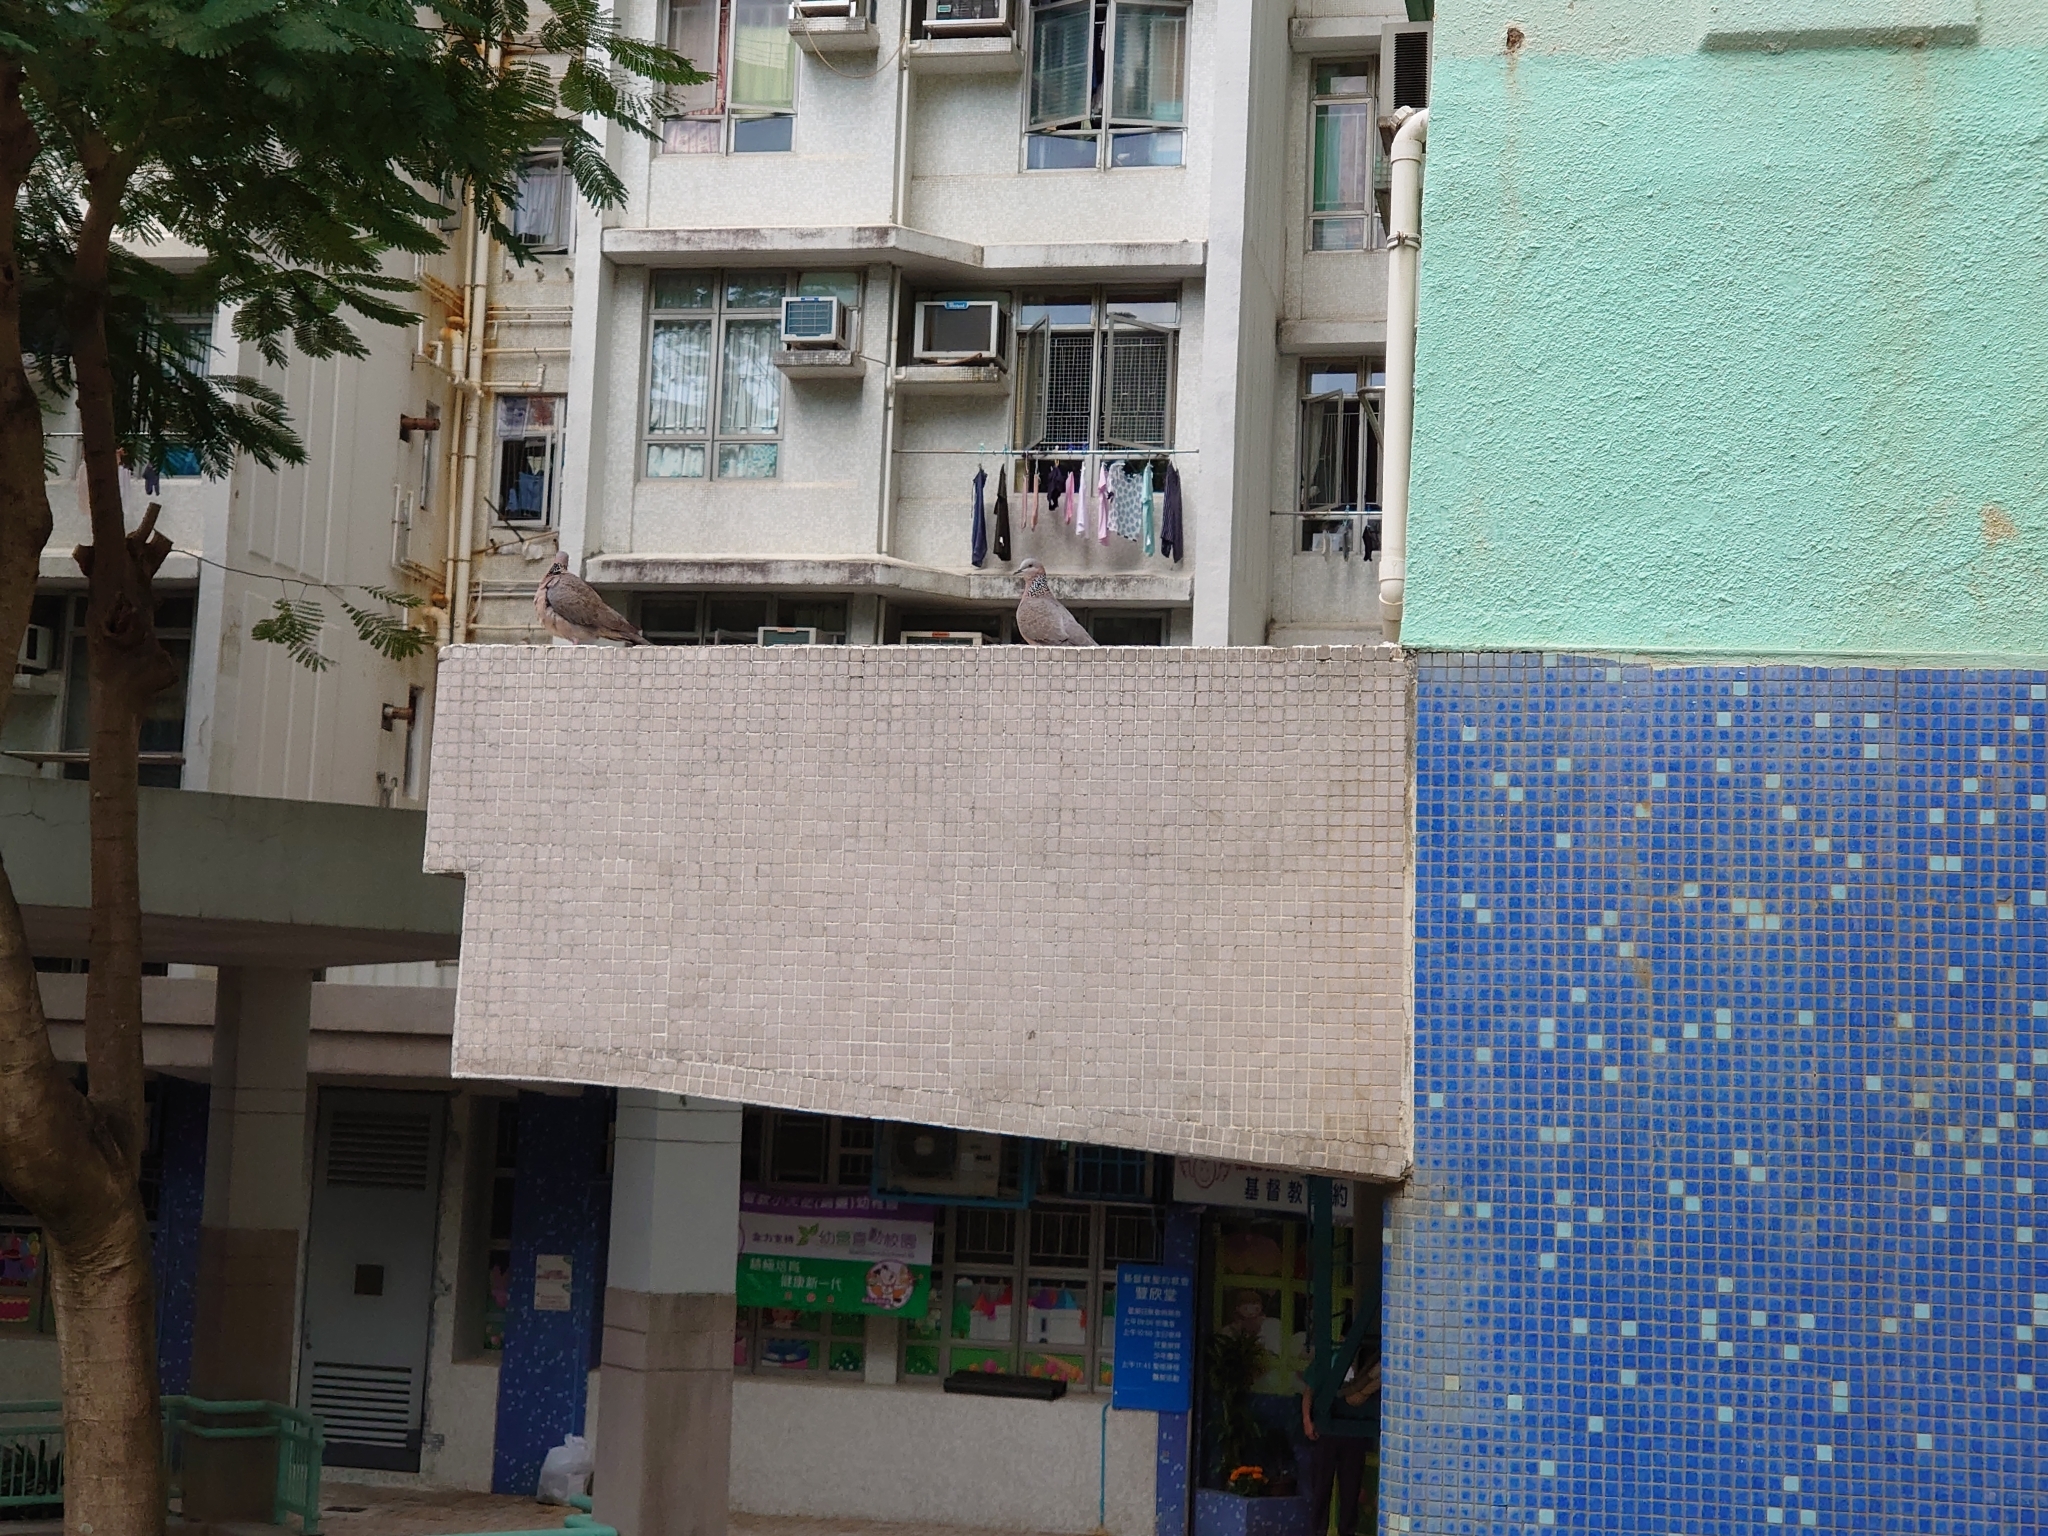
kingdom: Animalia
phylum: Chordata
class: Aves
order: Columbiformes
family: Columbidae
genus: Spilopelia
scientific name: Spilopelia chinensis
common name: Spotted dove
